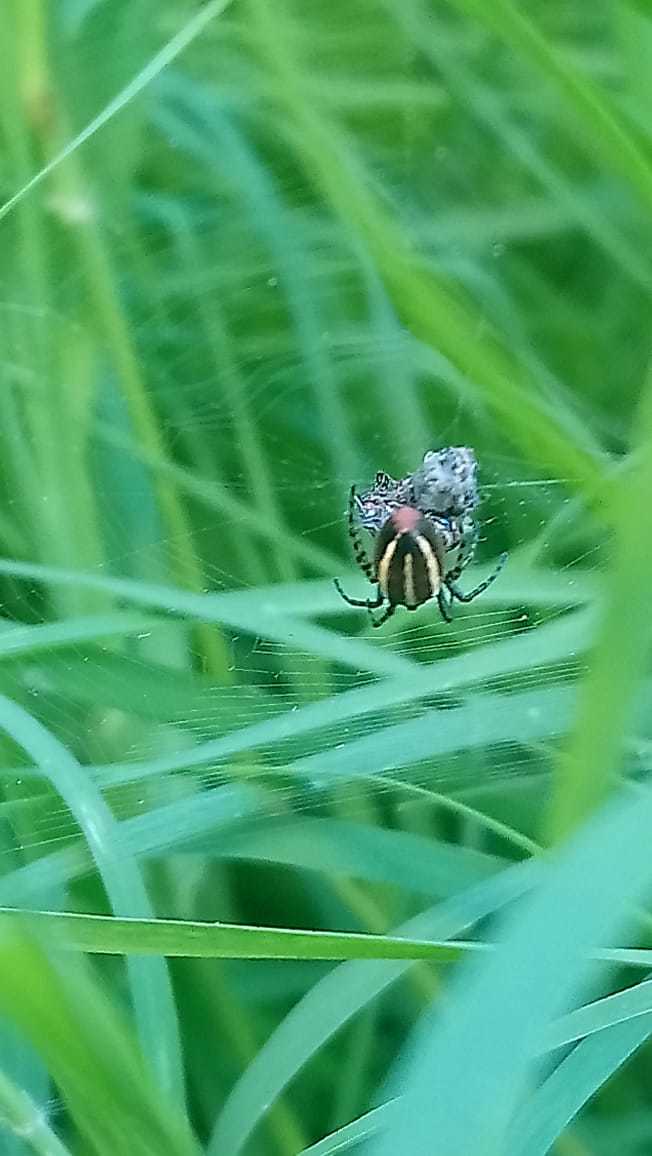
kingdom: Animalia
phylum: Arthropoda
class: Arachnida
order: Araneae
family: Araneidae
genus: Alpaida
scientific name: Alpaida leucogramma
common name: Orb weavers
